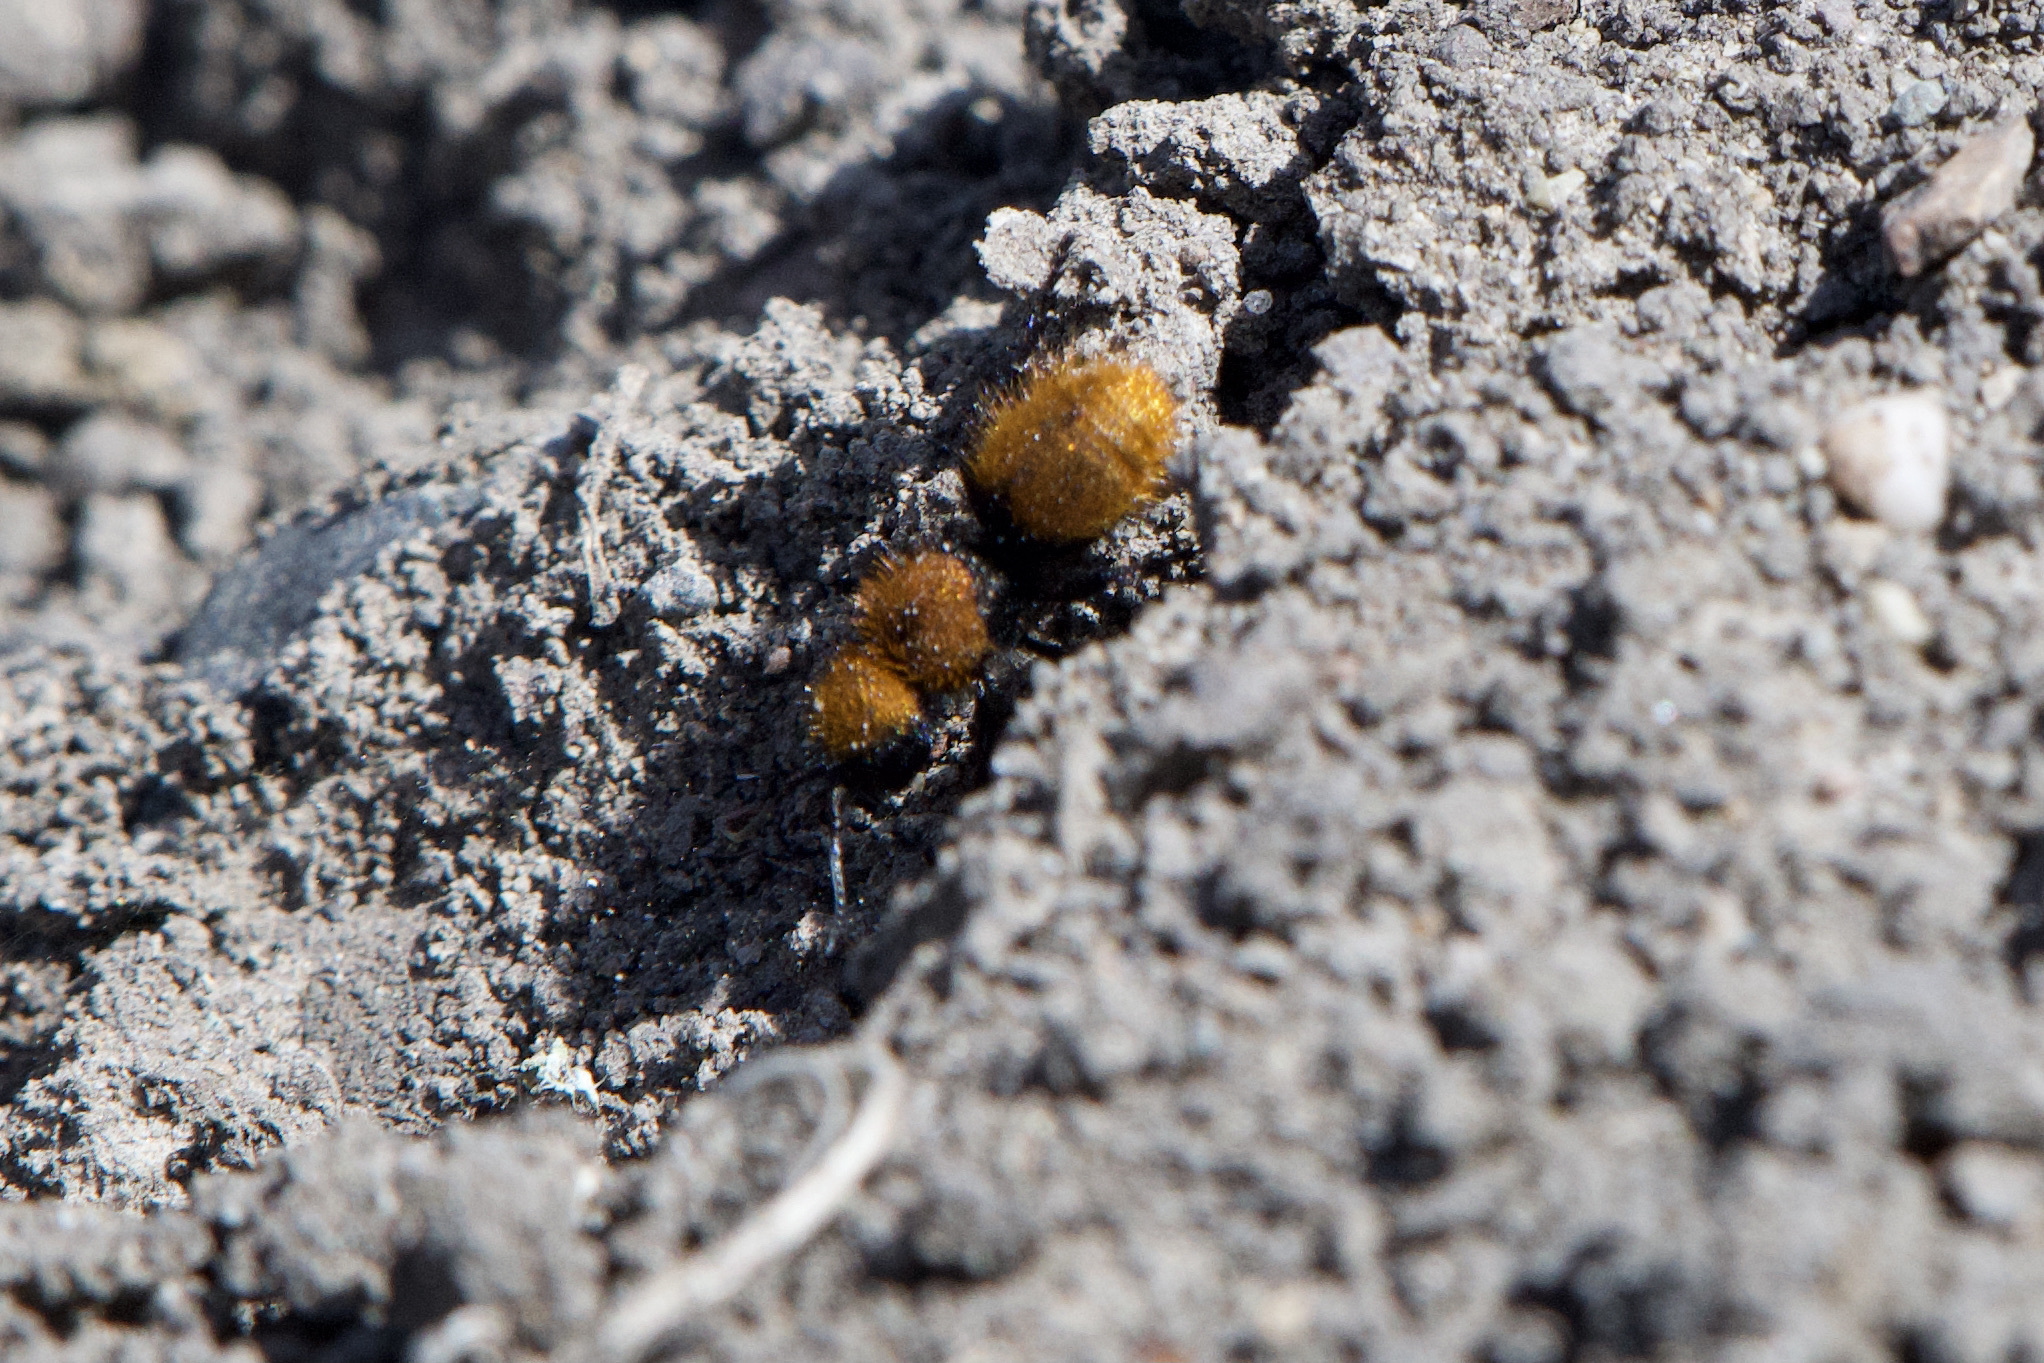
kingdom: Animalia
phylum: Arthropoda
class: Insecta
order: Hymenoptera
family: Mutillidae
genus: Dasymutilla
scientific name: Dasymutilla
